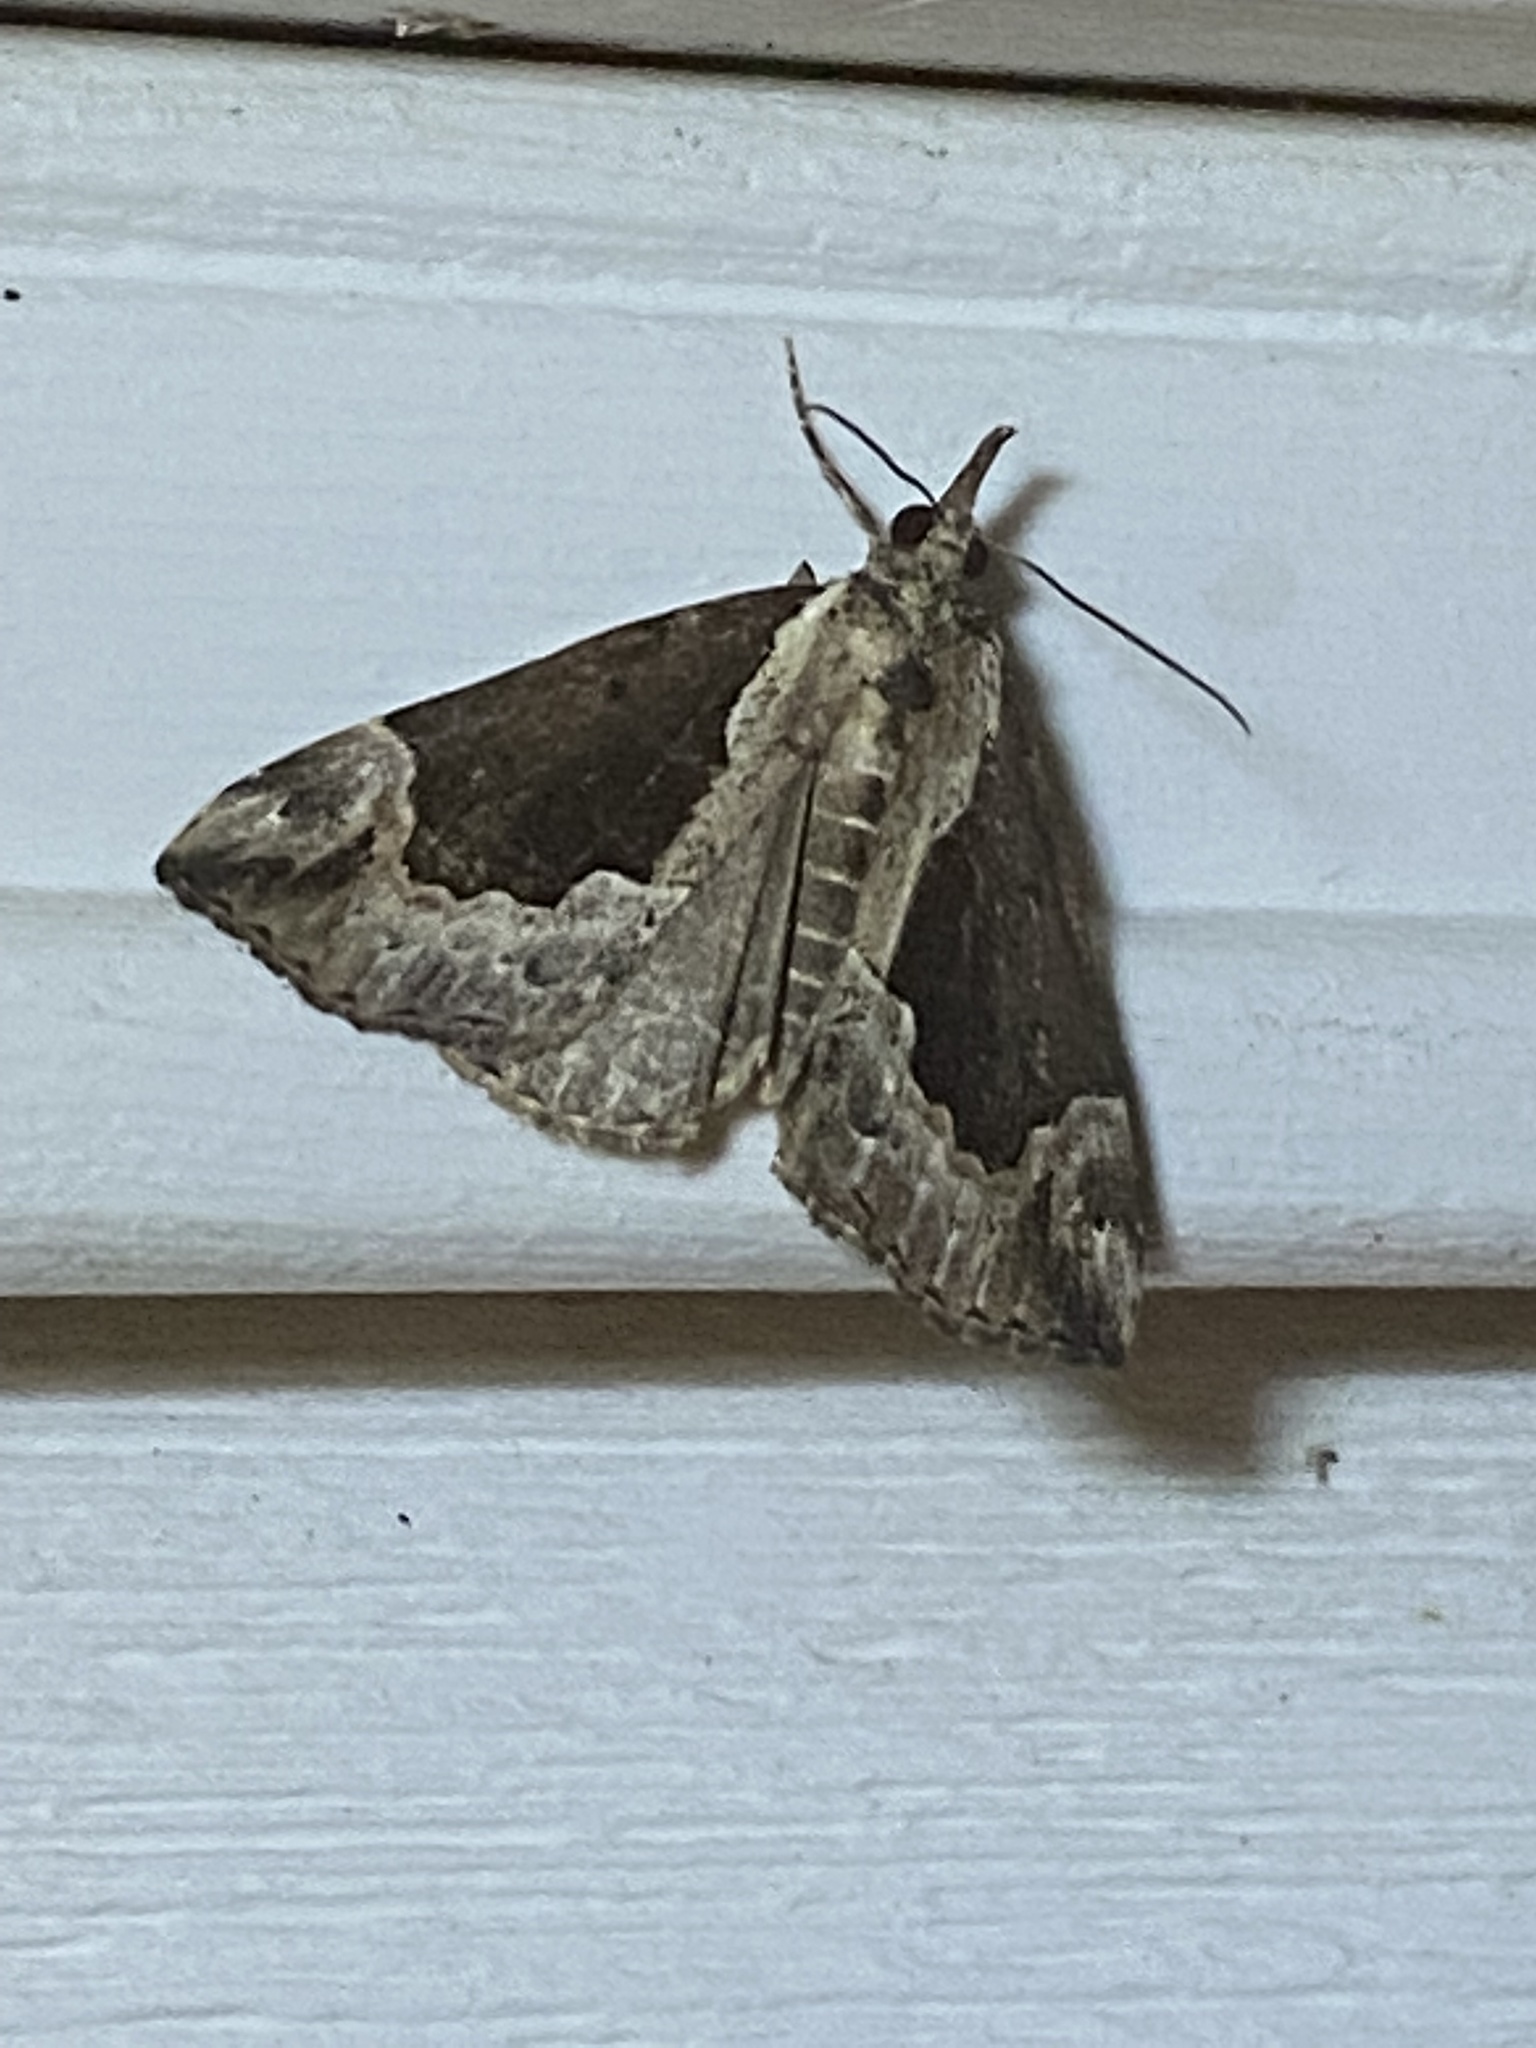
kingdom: Animalia
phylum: Arthropoda
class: Insecta
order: Lepidoptera
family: Erebidae
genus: Hypena
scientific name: Hypena baltimoralis
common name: Baltimore snout
